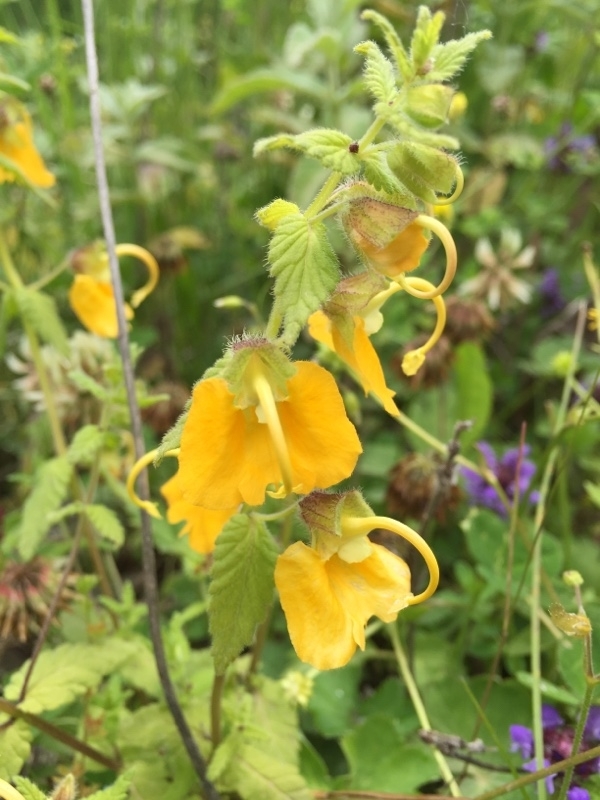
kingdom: Plantae
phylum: Tracheophyta
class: Magnoliopsida
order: Lamiales
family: Orobanchaceae
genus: Rhynchocorys
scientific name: Rhynchocorys orientalis
